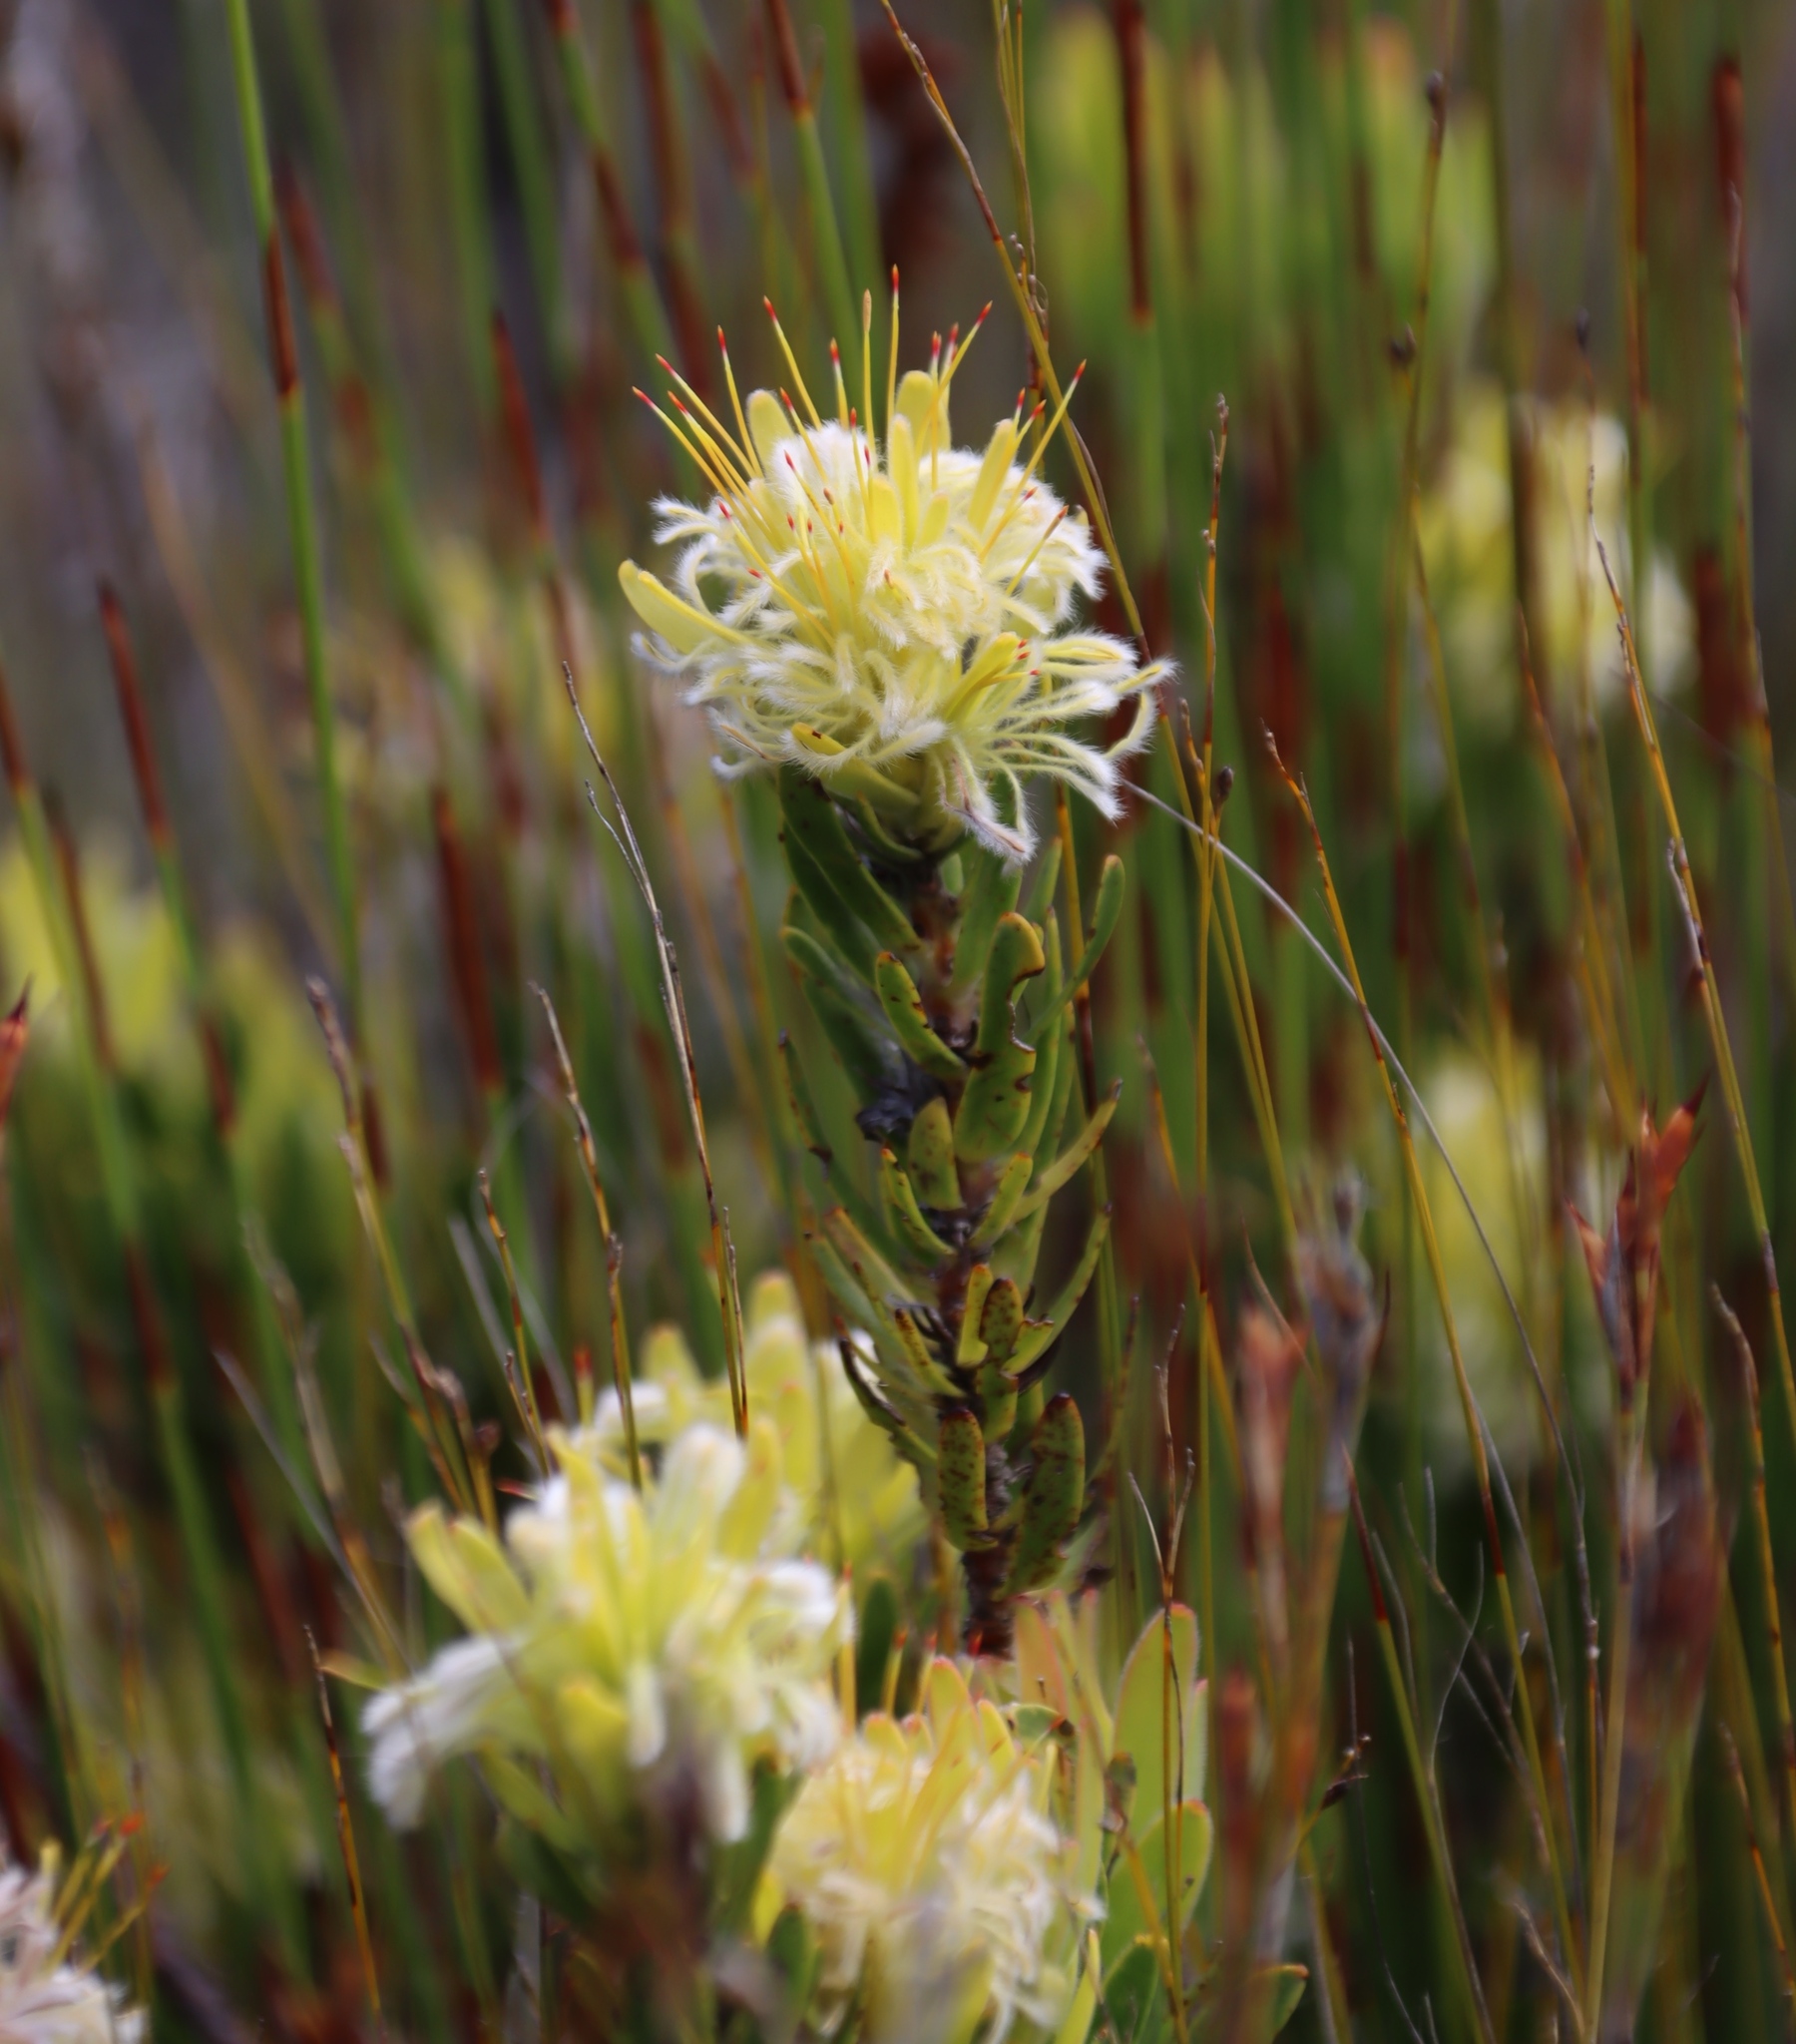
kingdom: Plantae
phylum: Tracheophyta
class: Magnoliopsida
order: Proteales
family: Proteaceae
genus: Mimetes
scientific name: Mimetes cucullatus
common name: Common pagoda
